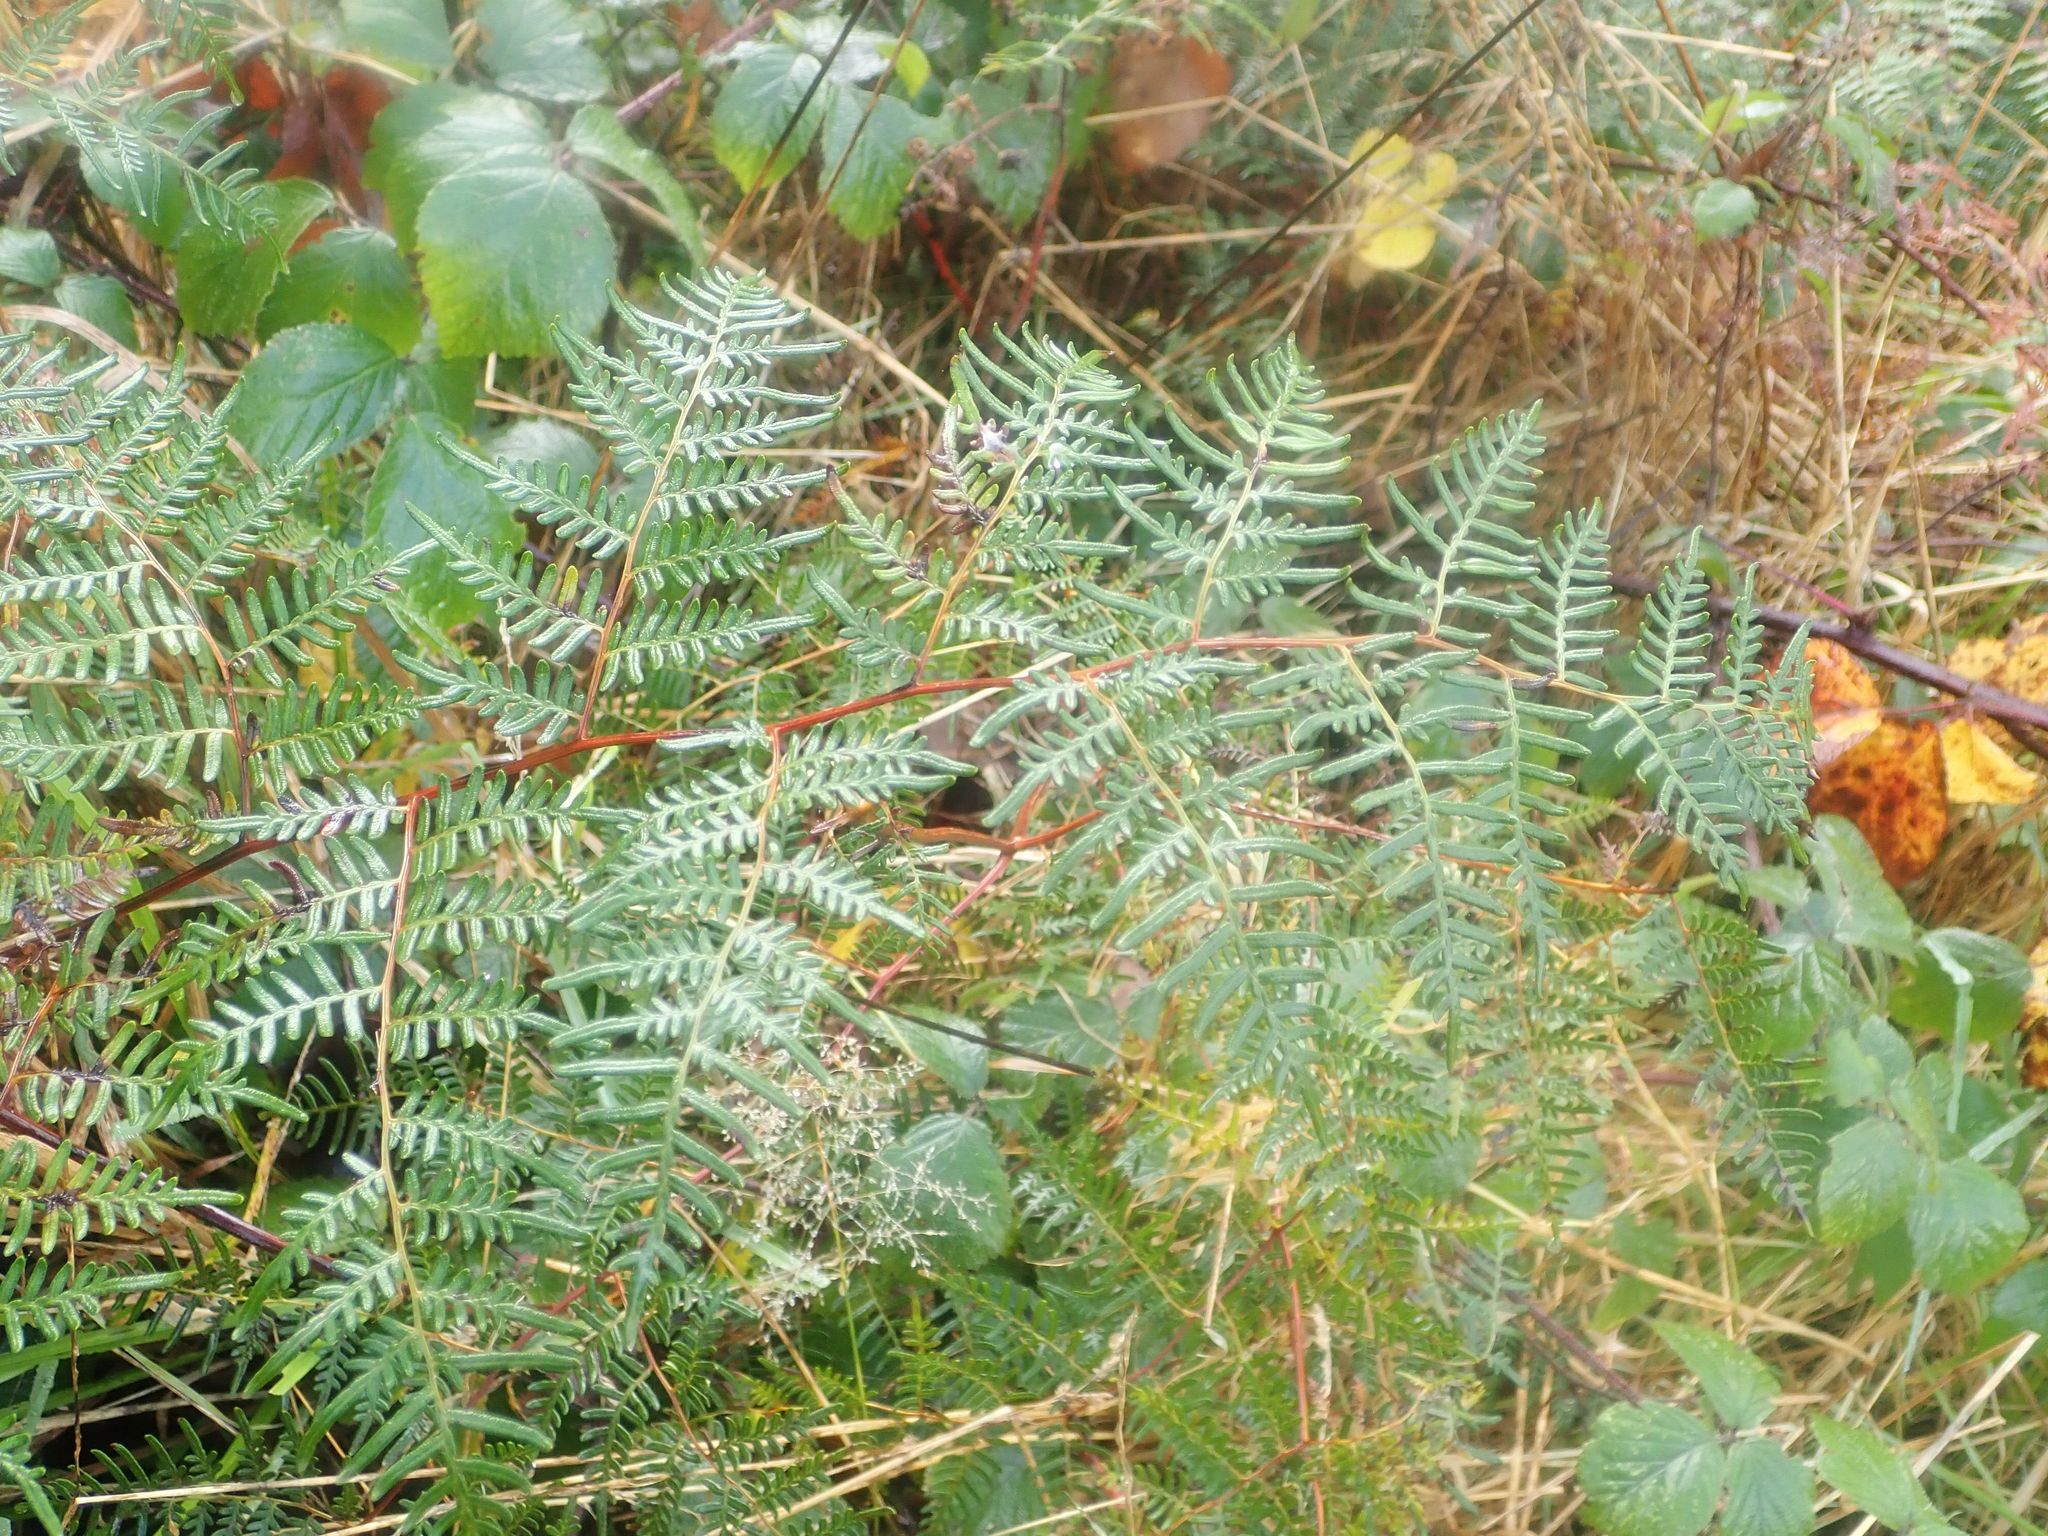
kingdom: Plantae
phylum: Tracheophyta
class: Polypodiopsida
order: Polypodiales
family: Dennstaedtiaceae
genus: Pteridium
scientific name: Pteridium esculentum
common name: Bracken fern
